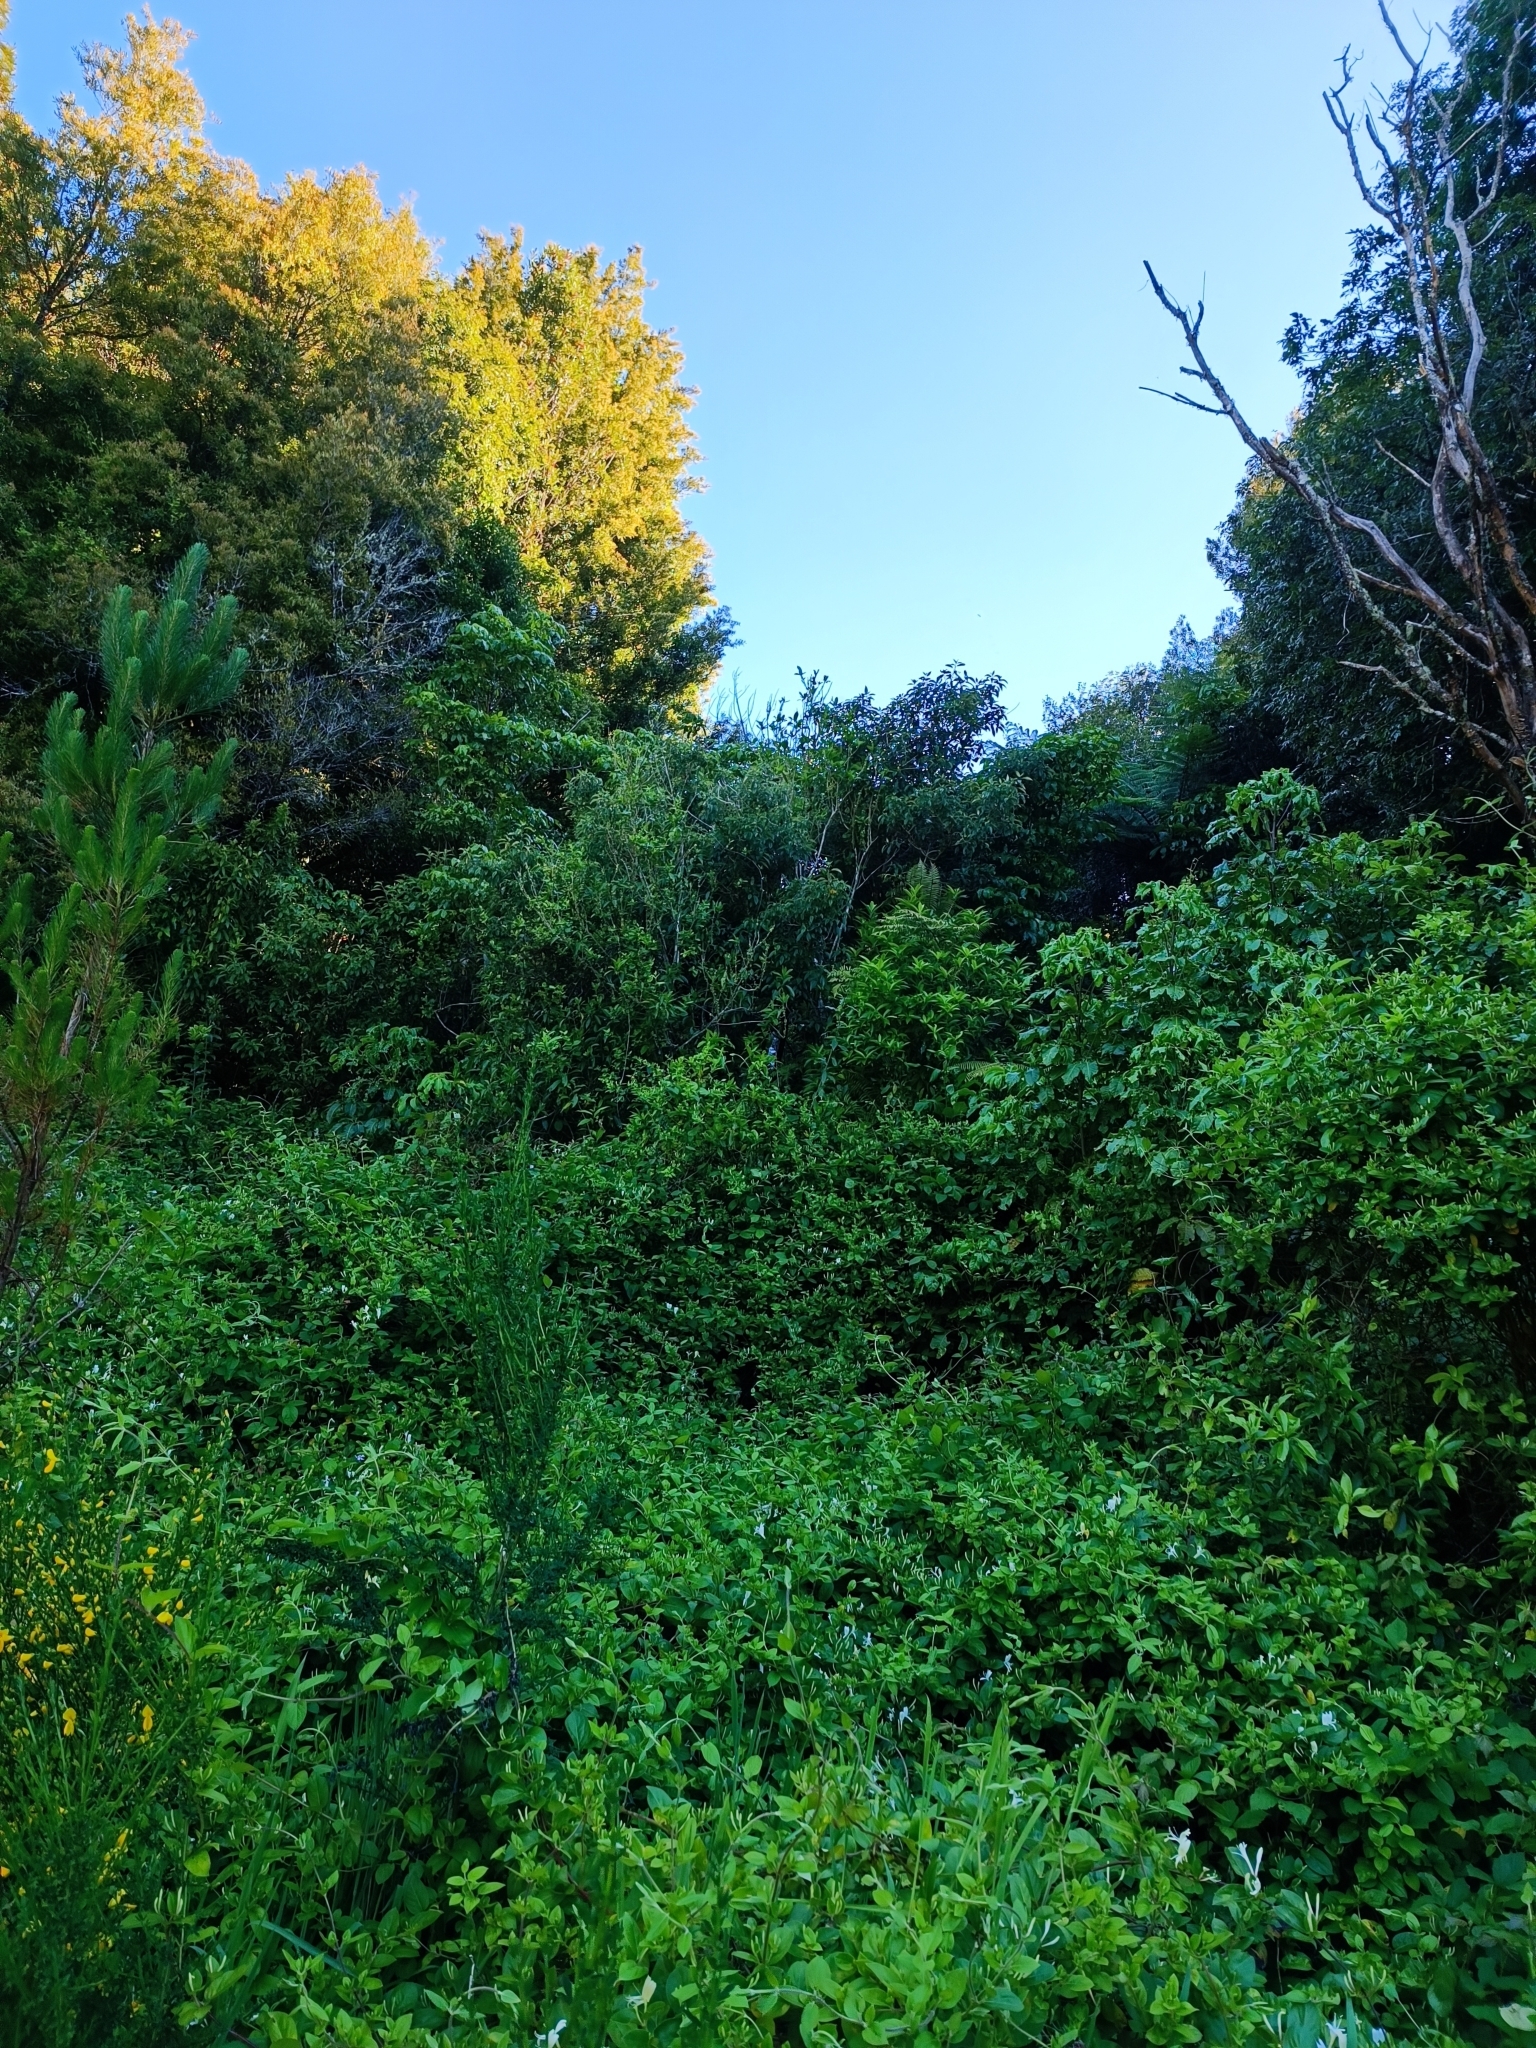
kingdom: Plantae
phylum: Tracheophyta
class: Magnoliopsida
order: Dipsacales
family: Caprifoliaceae
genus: Lonicera
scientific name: Lonicera japonica
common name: Japanese honeysuckle
